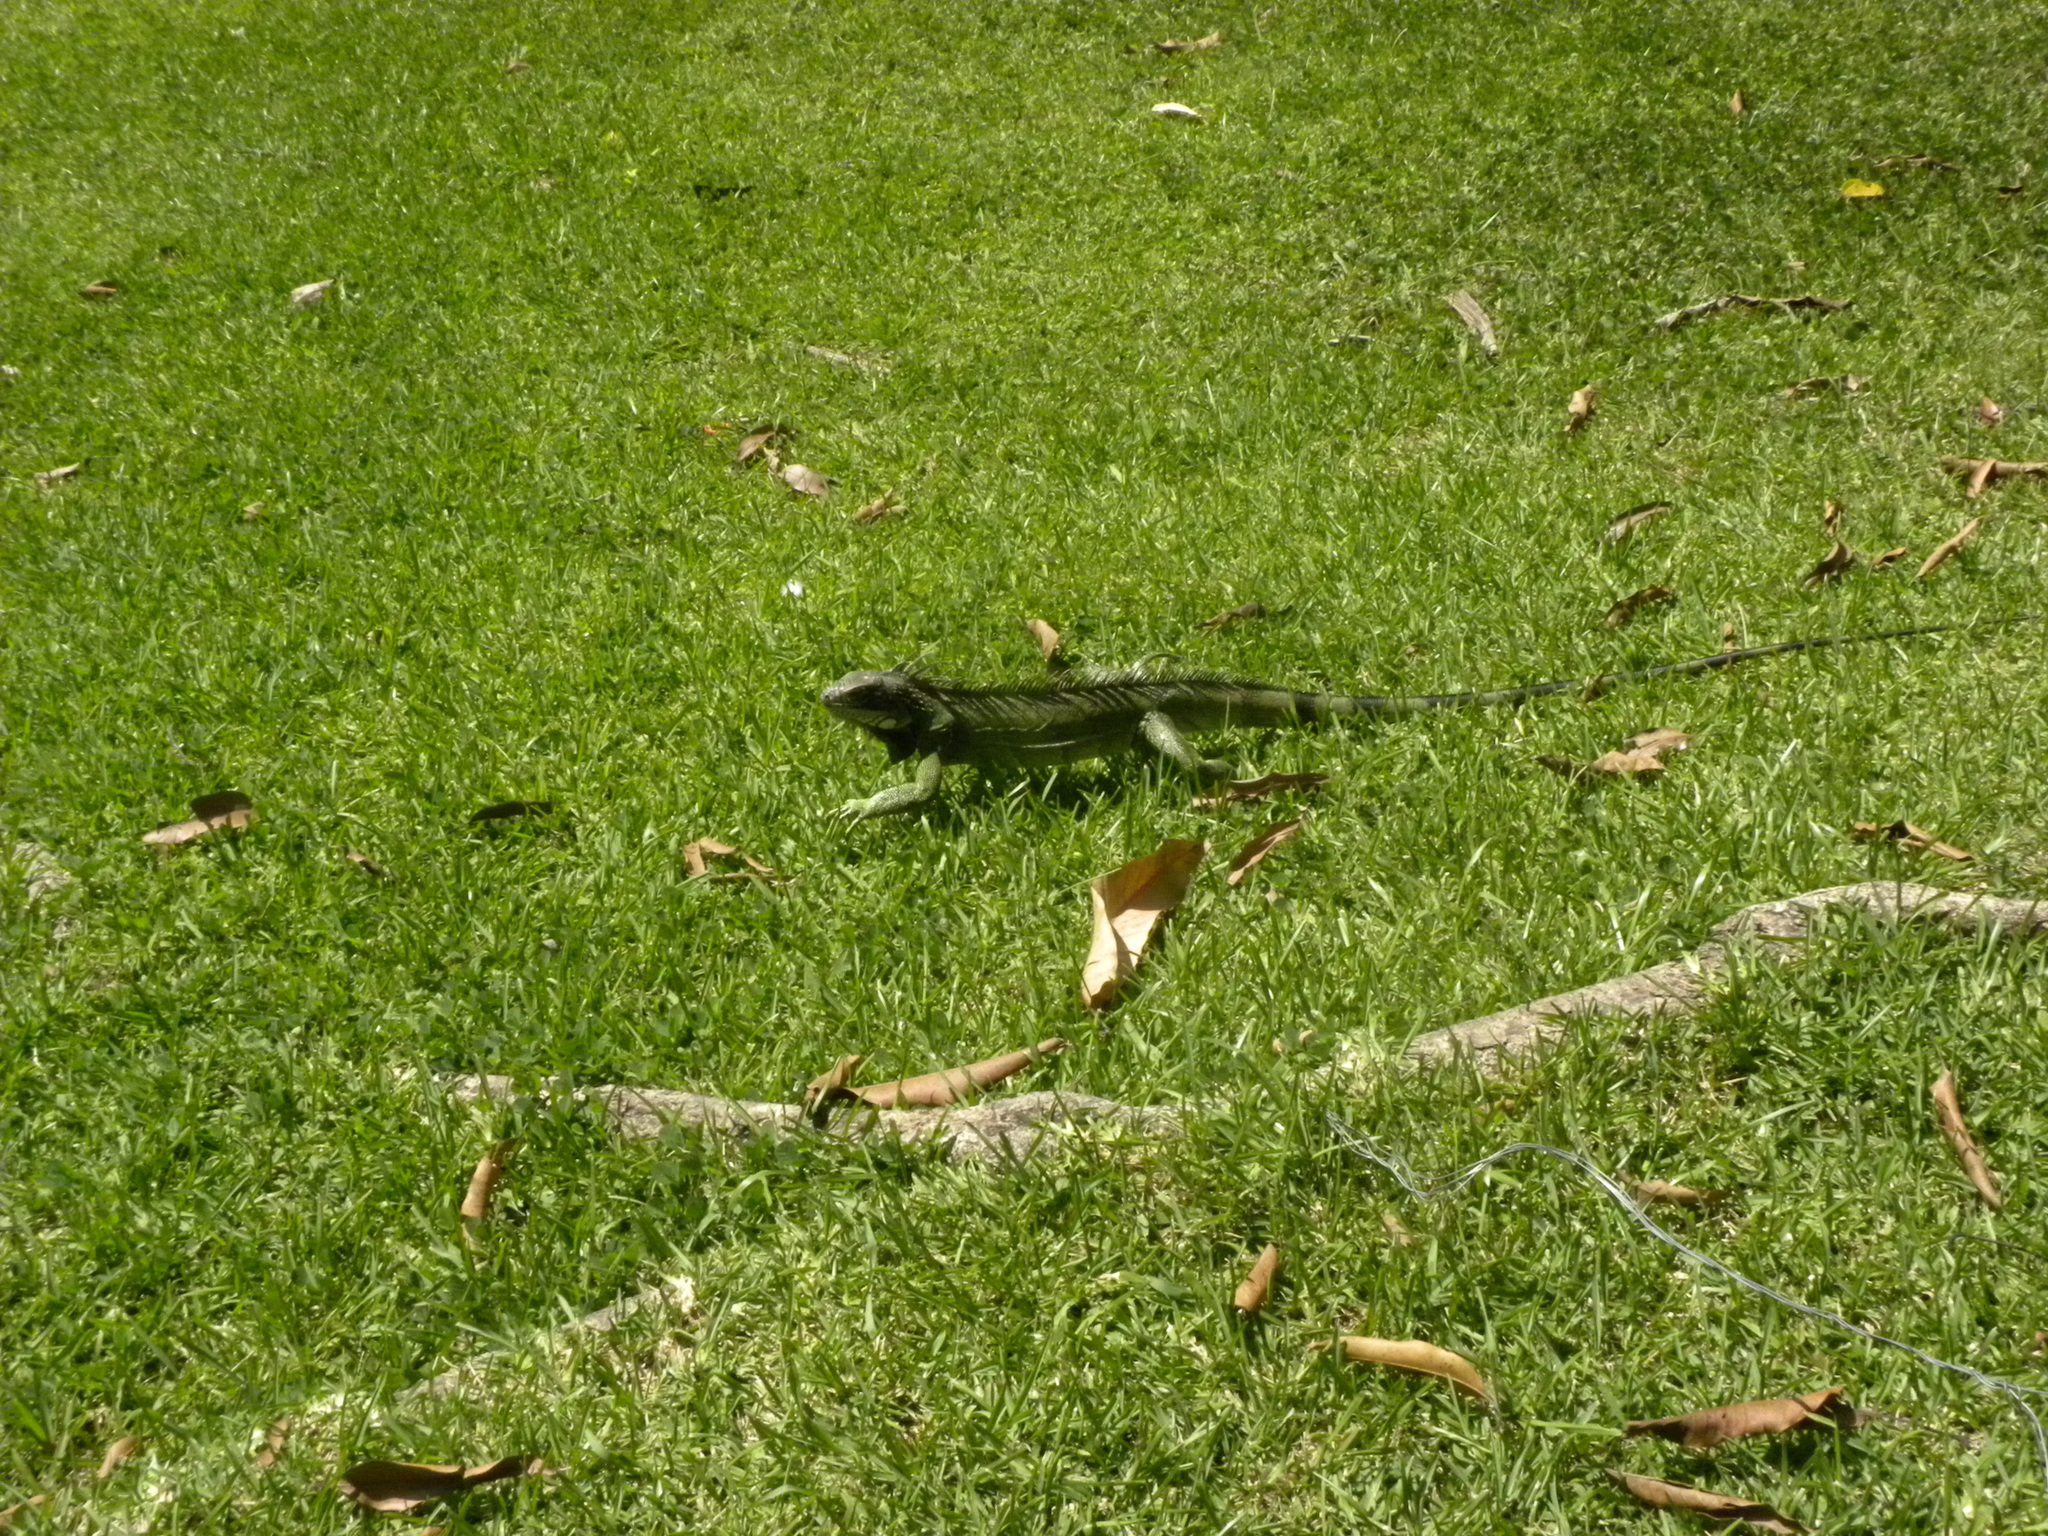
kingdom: Animalia
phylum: Chordata
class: Squamata
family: Iguanidae
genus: Iguana
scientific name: Iguana iguana
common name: Green iguana
